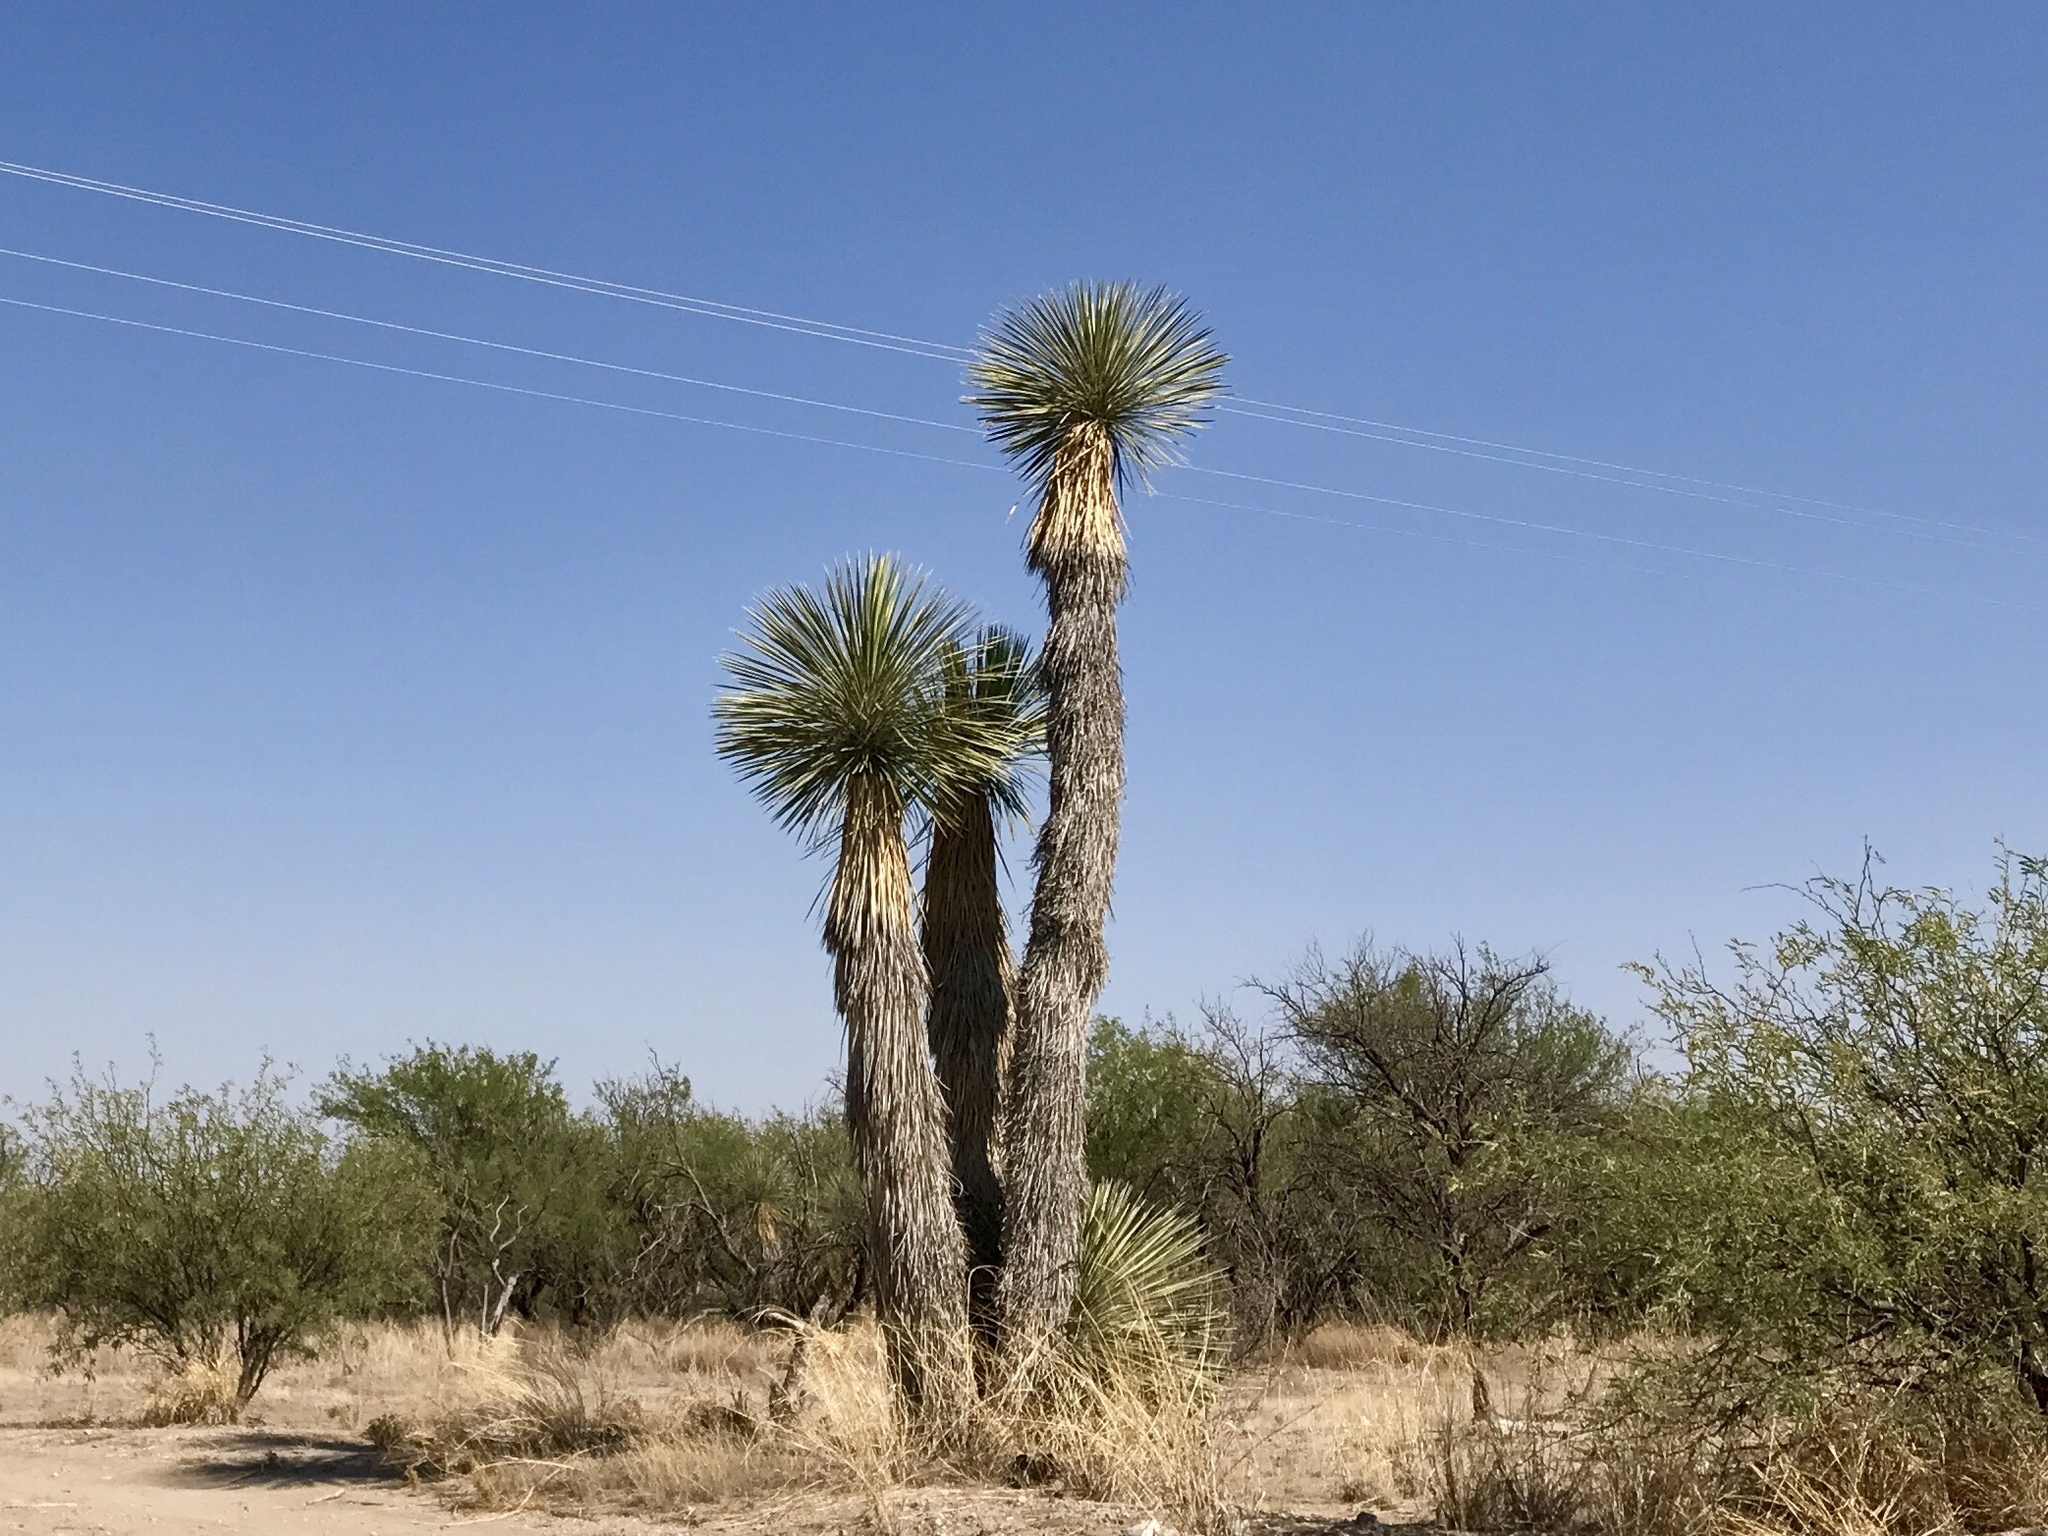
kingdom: Plantae
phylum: Tracheophyta
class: Liliopsida
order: Asparagales
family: Asparagaceae
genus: Yucca
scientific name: Yucca elata
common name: Palmella
